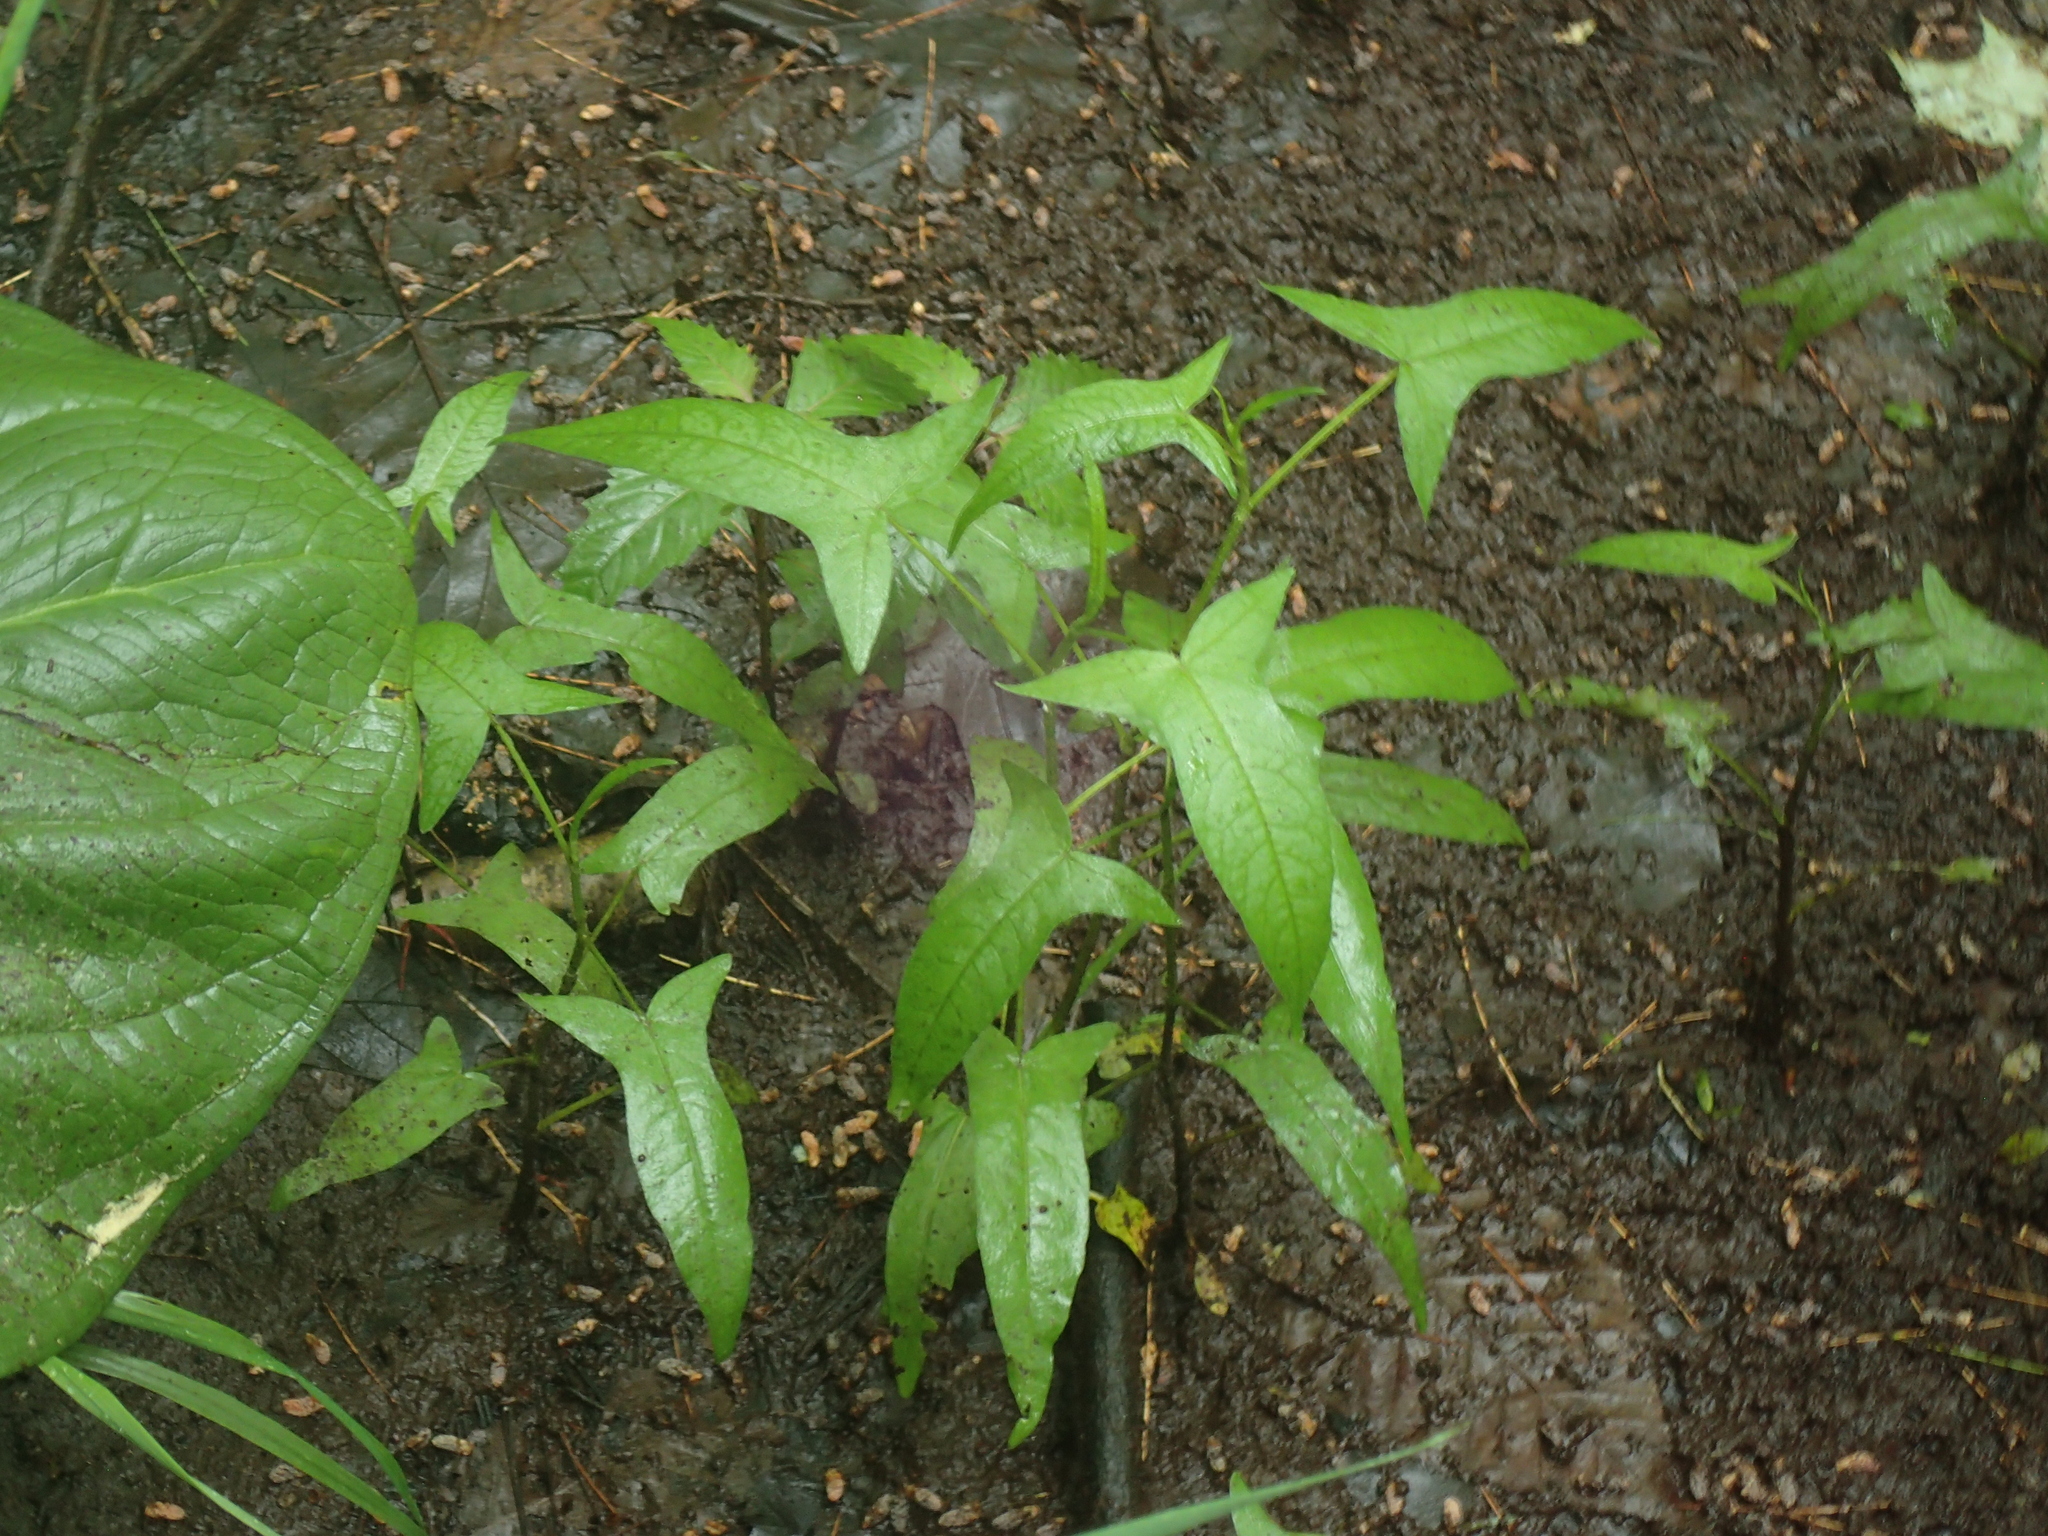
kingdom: Plantae
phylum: Tracheophyta
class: Magnoliopsida
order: Caryophyllales
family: Polygonaceae
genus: Persicaria
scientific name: Persicaria arifolia
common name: Halberd-leaved tear-thumb
